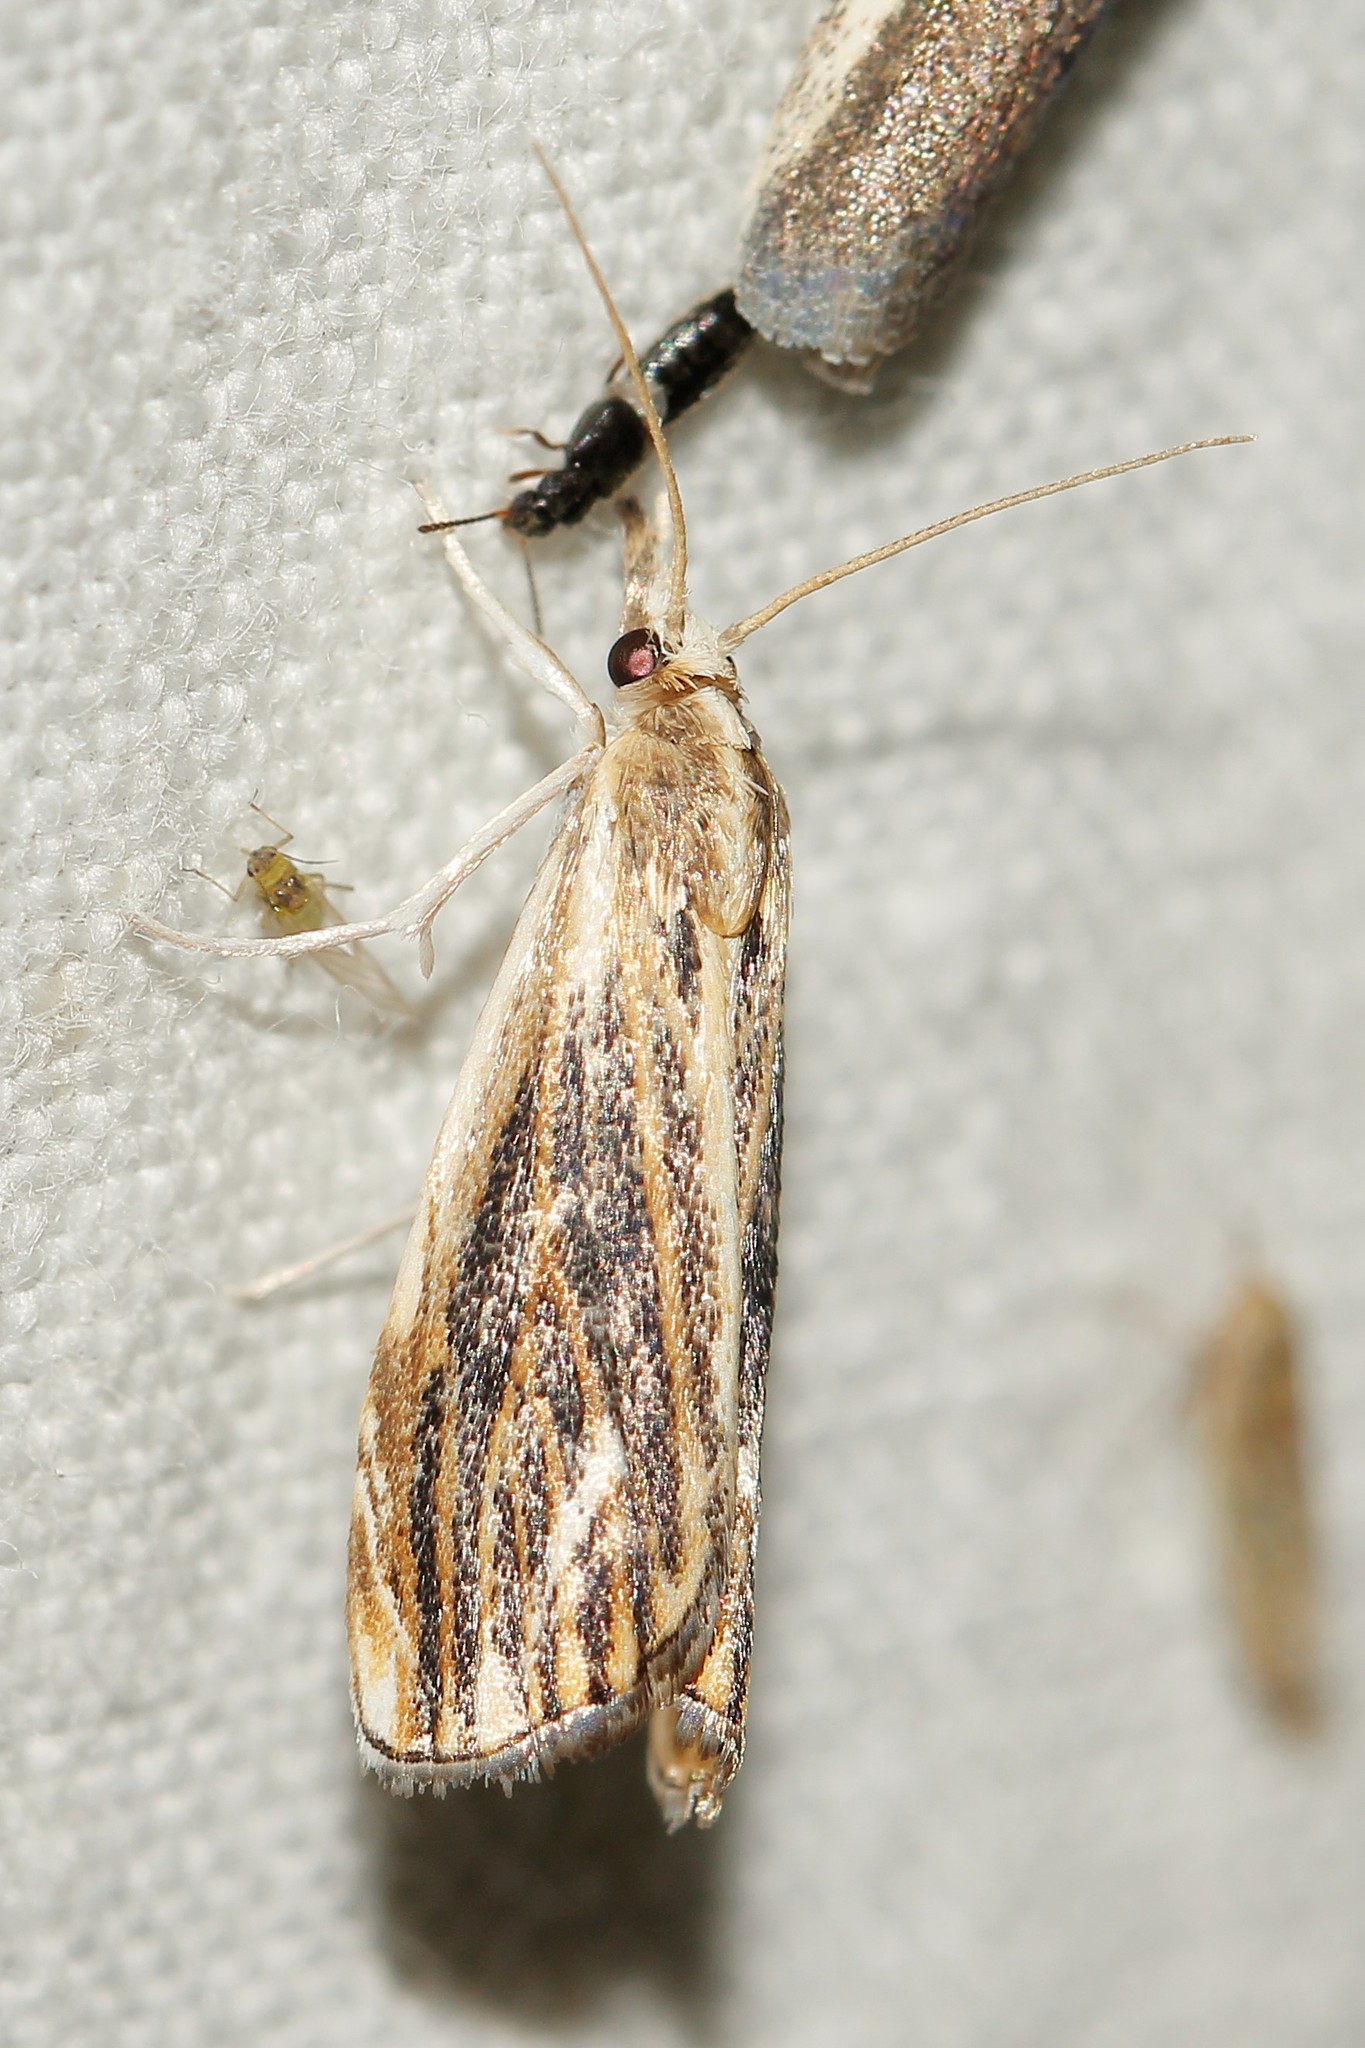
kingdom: Animalia
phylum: Arthropoda
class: Insecta
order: Lepidoptera
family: Crambidae
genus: Catoptria
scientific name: Catoptria verellus
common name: Marbled grass-veneer
